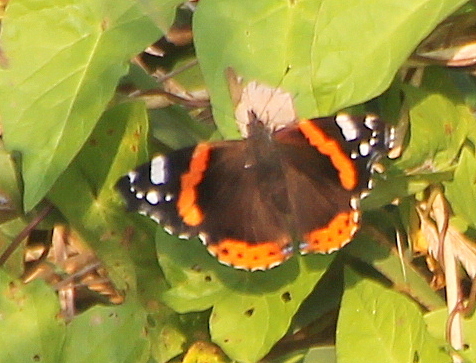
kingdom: Animalia
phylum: Arthropoda
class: Insecta
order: Lepidoptera
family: Nymphalidae
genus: Vanessa
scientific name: Vanessa atalanta
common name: Red admiral
